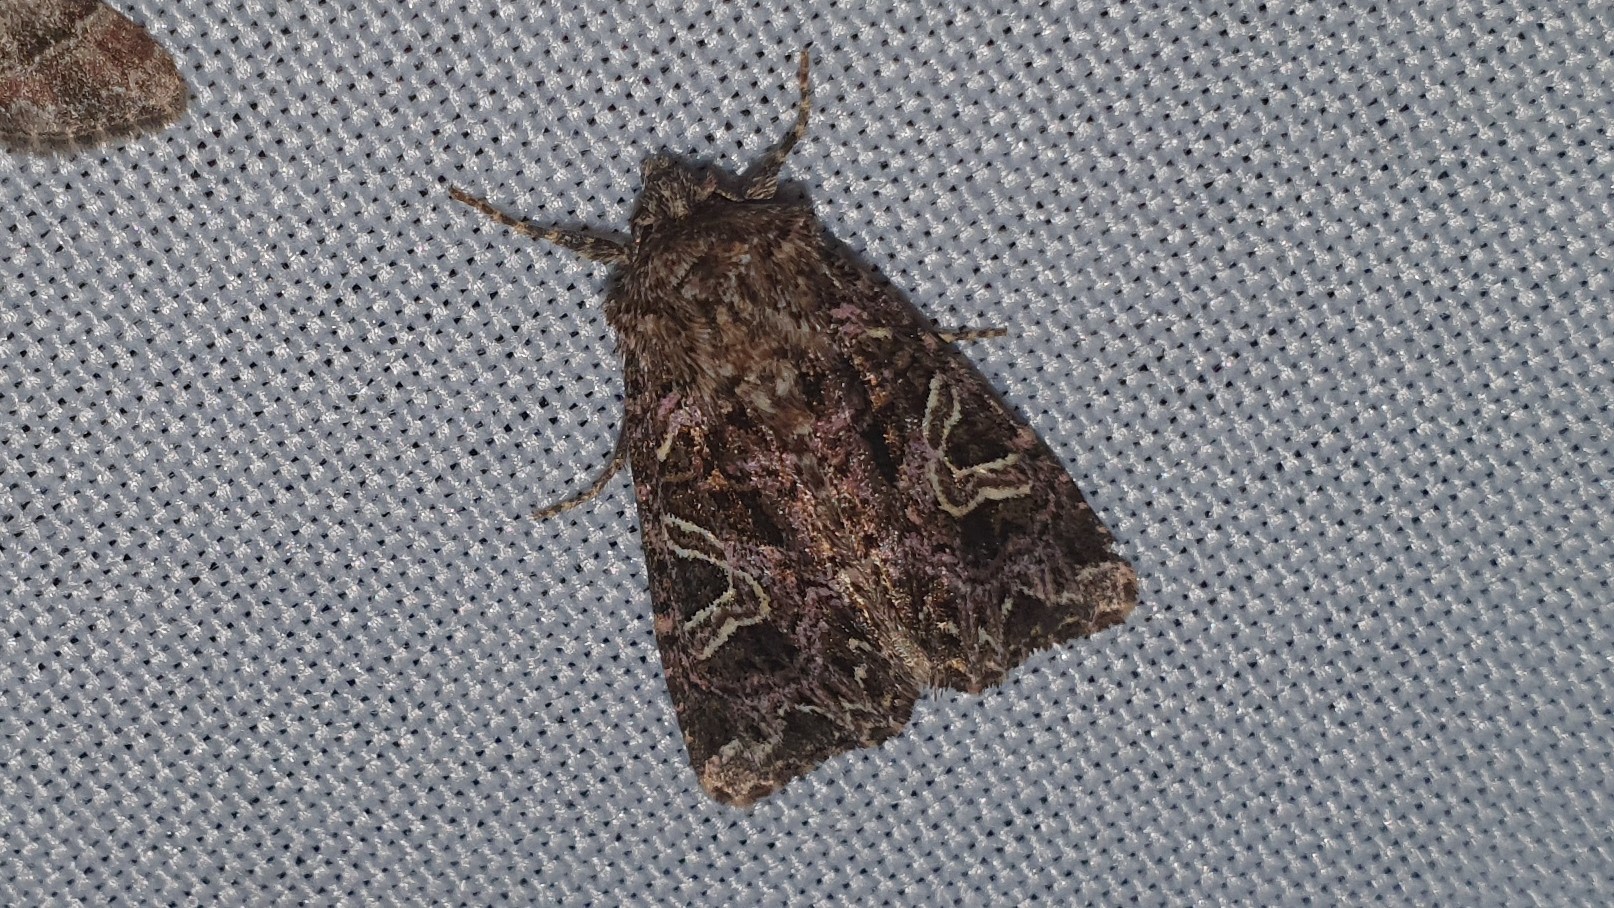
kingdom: Animalia
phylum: Arthropoda
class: Insecta
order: Lepidoptera
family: Noctuidae
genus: Sideridis
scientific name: Sideridis rivularis
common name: Campion
